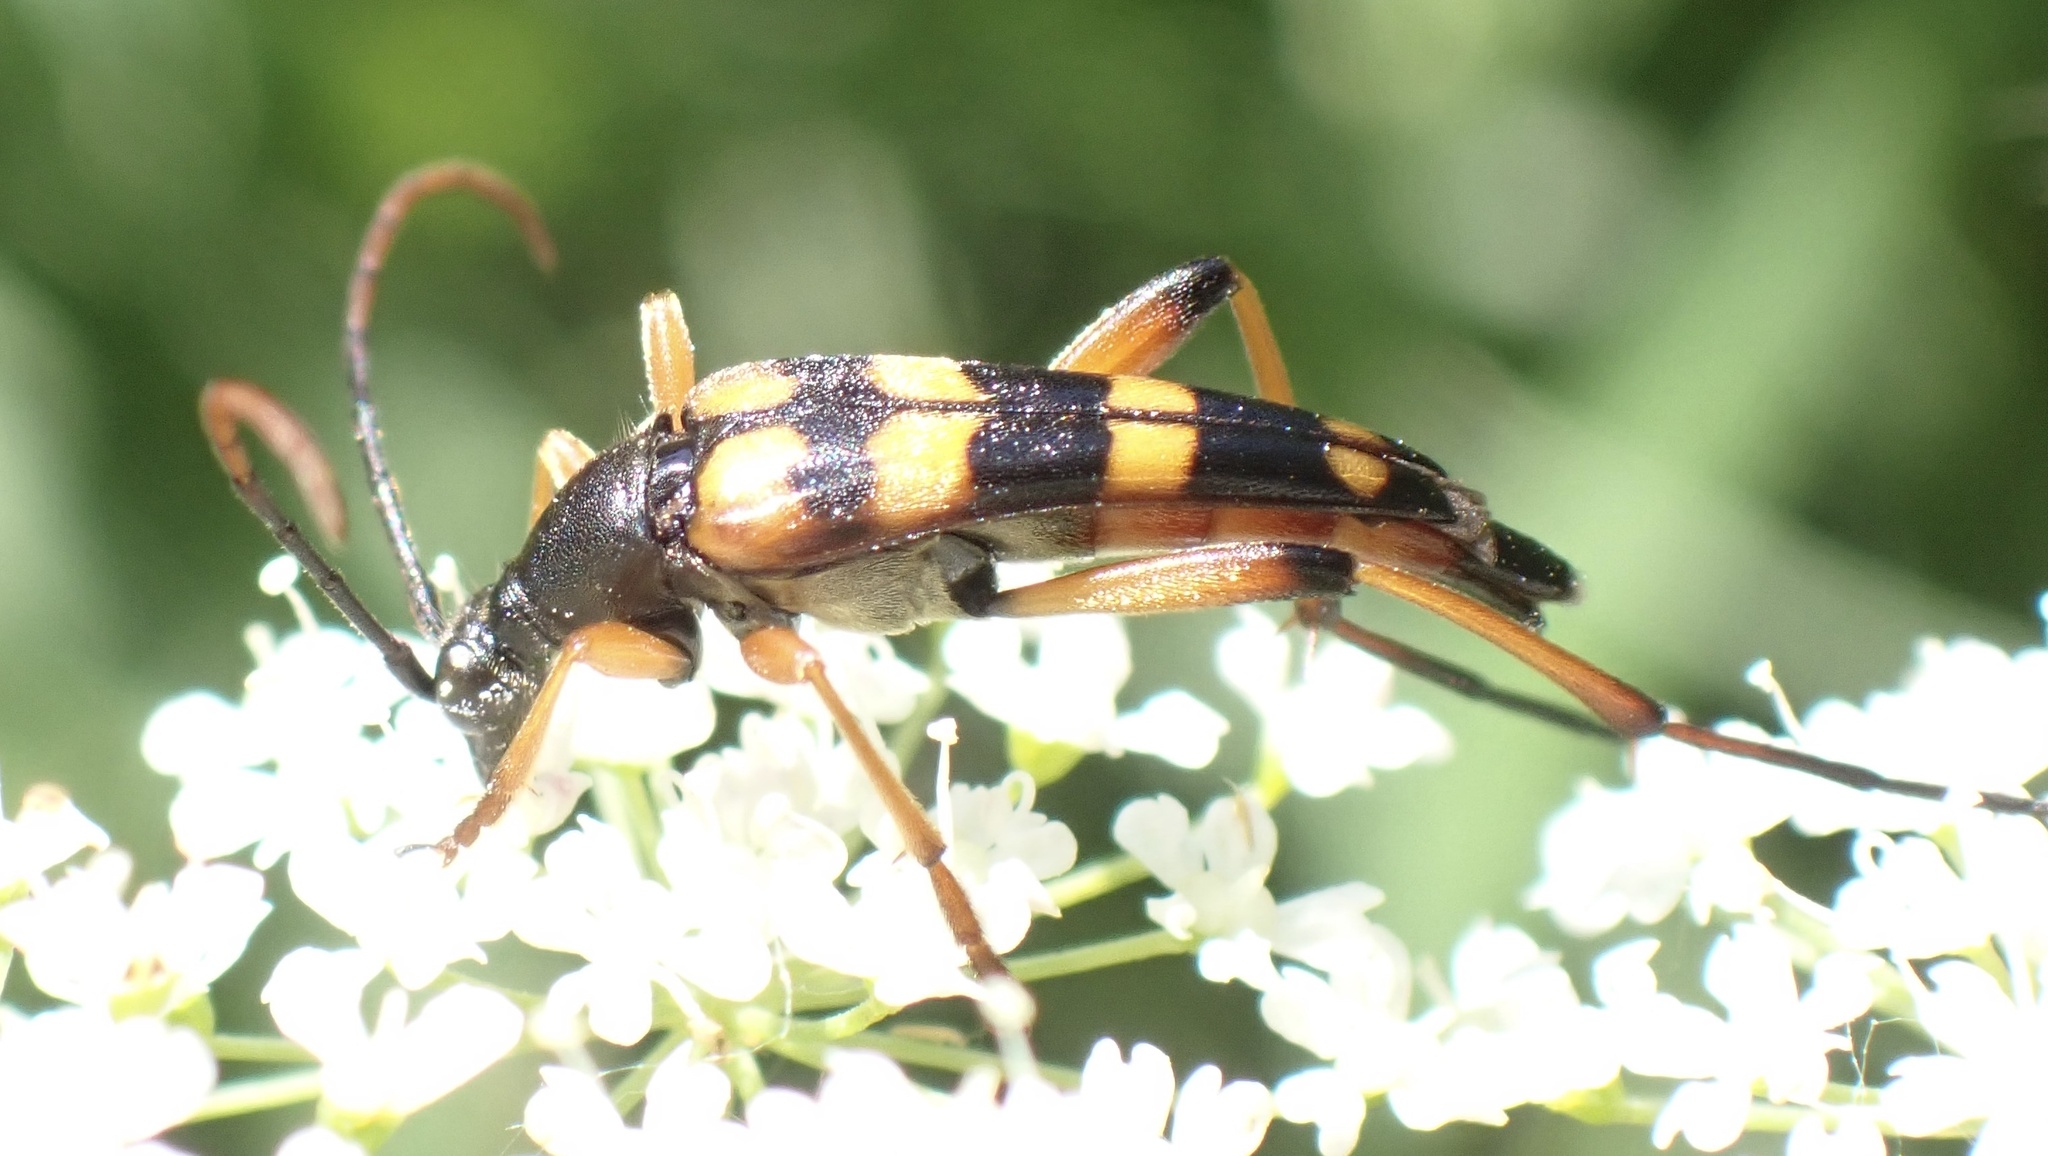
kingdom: Animalia
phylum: Arthropoda
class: Insecta
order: Coleoptera
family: Cerambycidae
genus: Strangalia
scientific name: Strangalia attenuata
